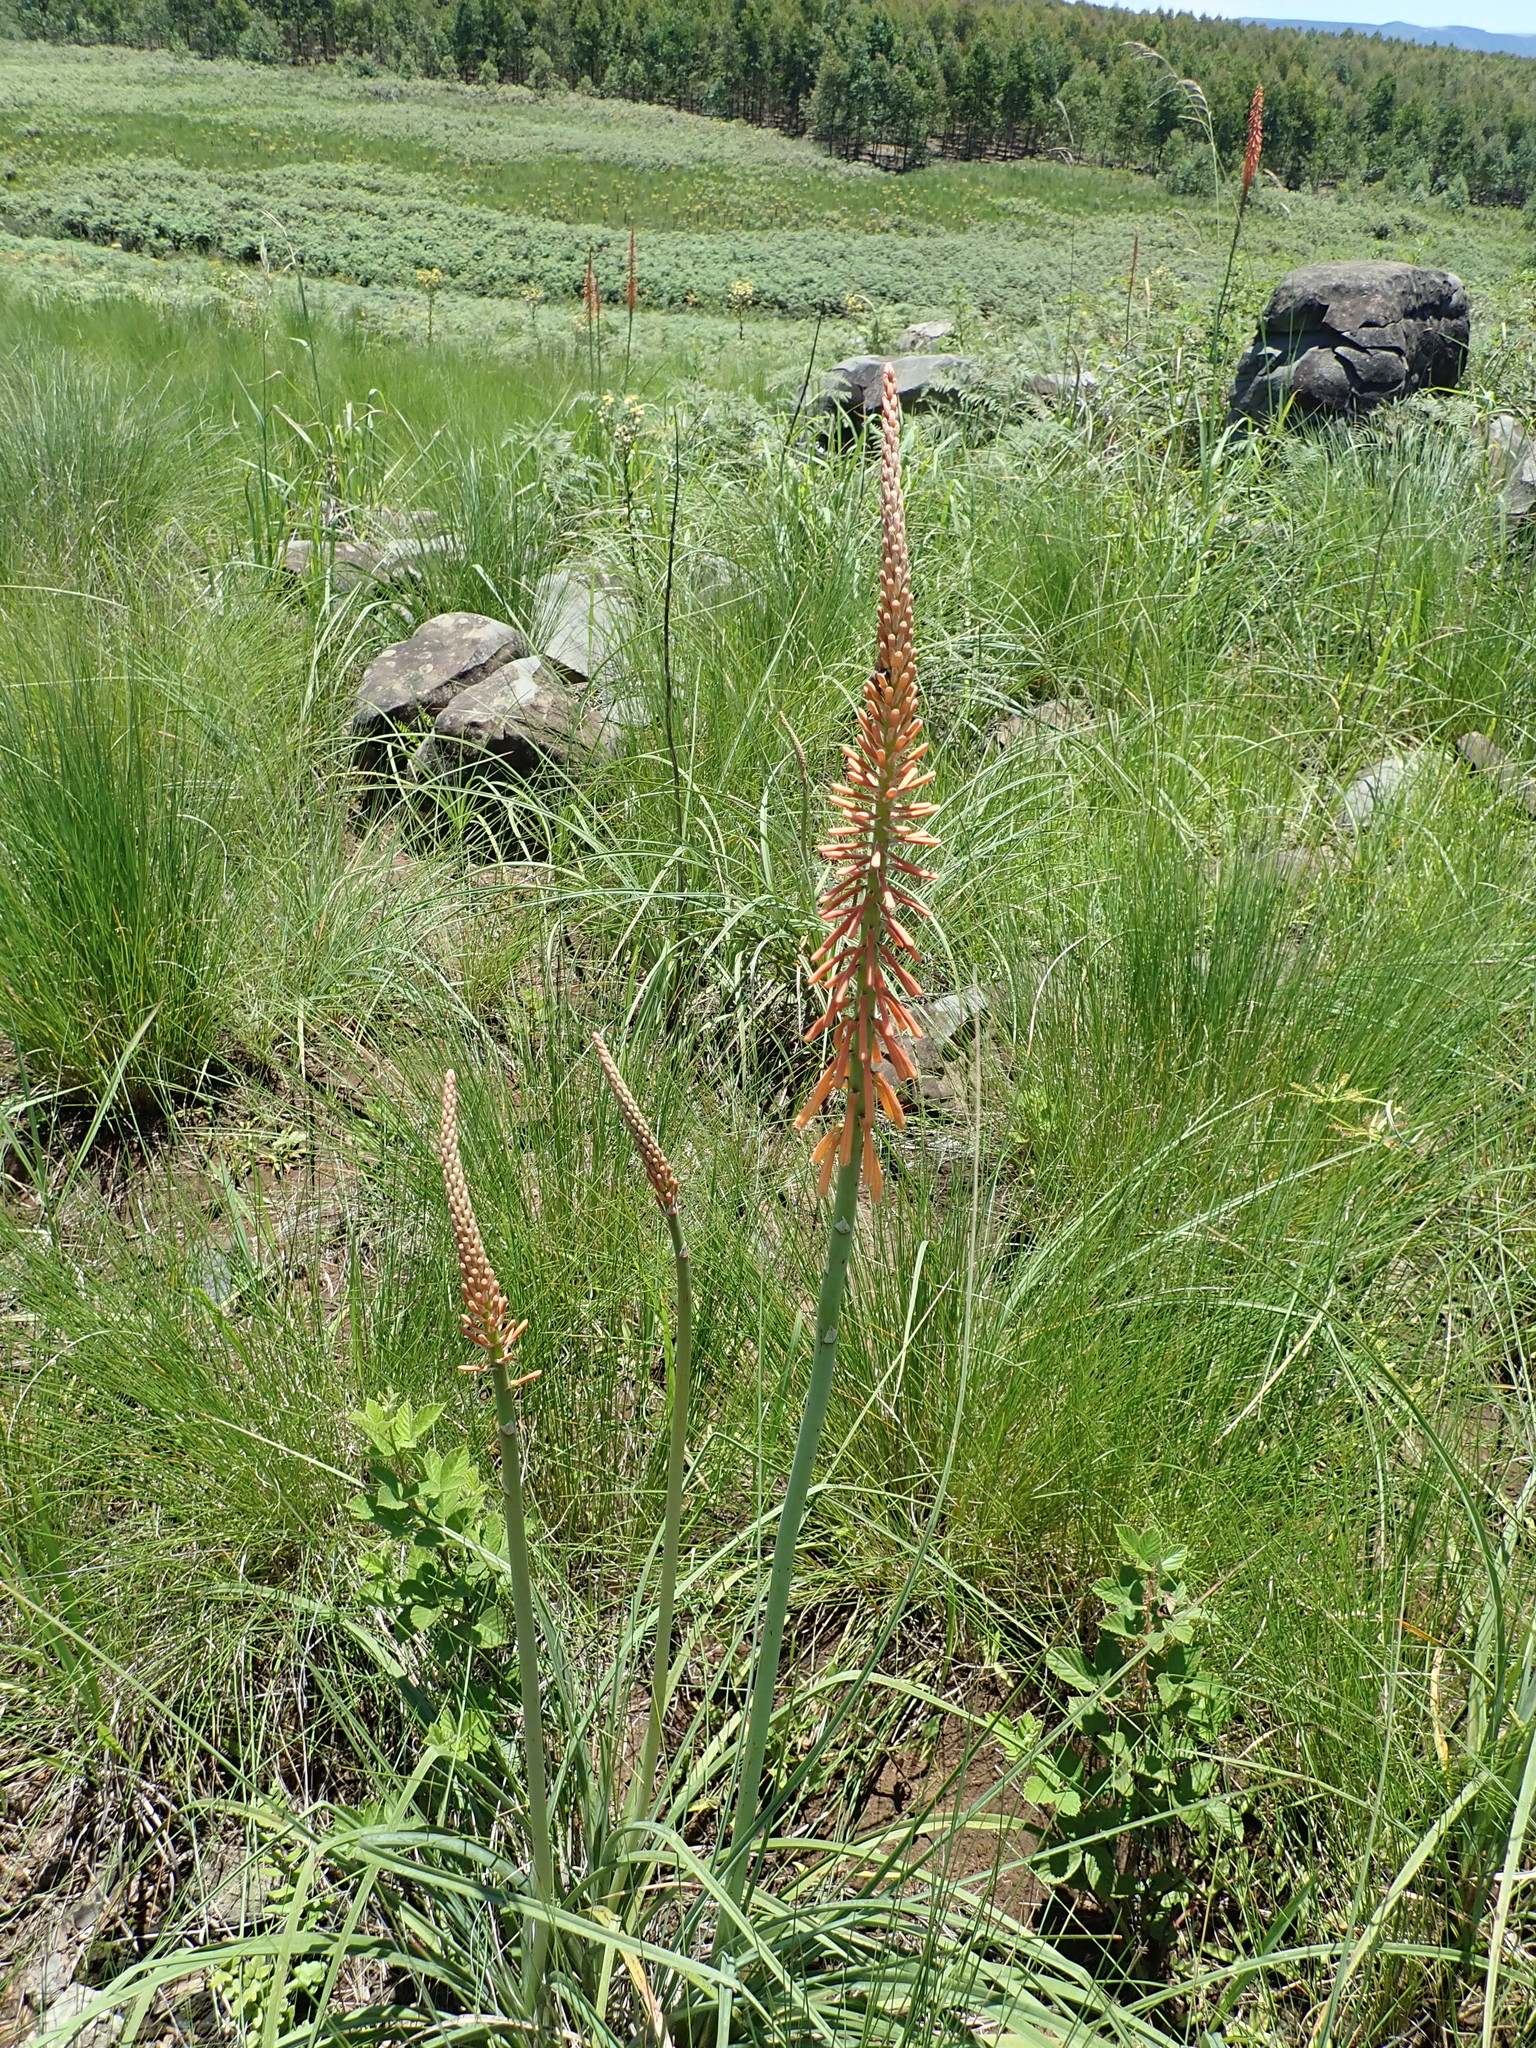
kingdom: Plantae
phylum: Tracheophyta
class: Liliopsida
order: Asparagales
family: Asphodelaceae
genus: Kniphofia
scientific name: Kniphofia laxiflora
